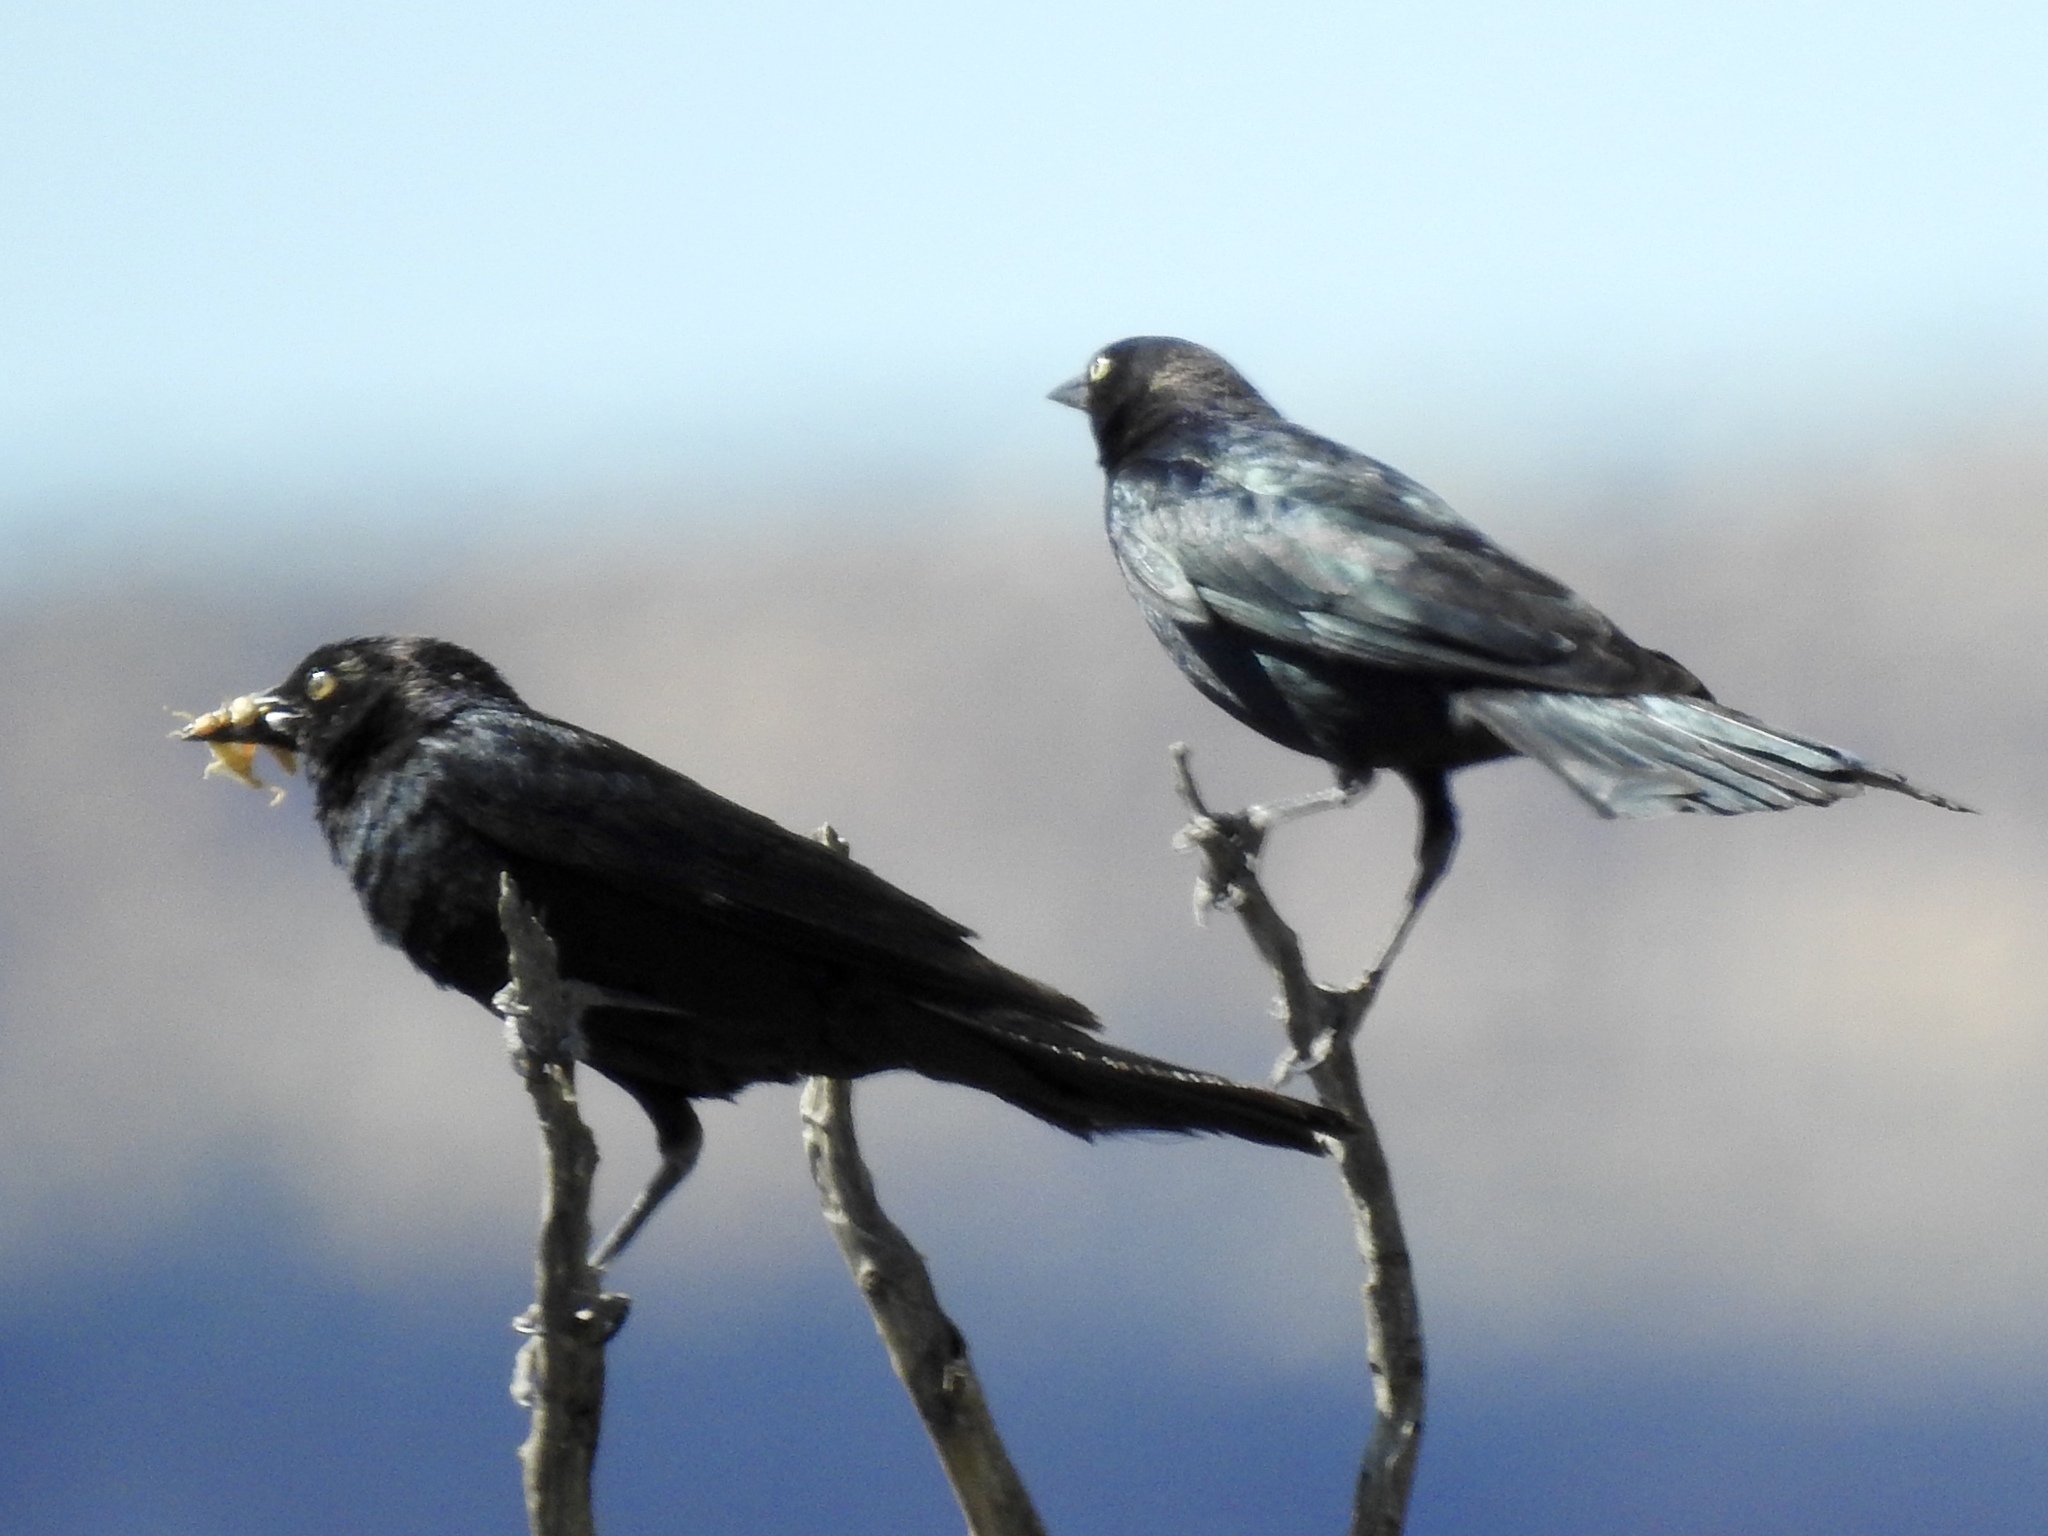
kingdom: Animalia
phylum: Chordata
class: Aves
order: Passeriformes
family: Icteridae
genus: Euphagus
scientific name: Euphagus cyanocephalus
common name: Brewer's blackbird
